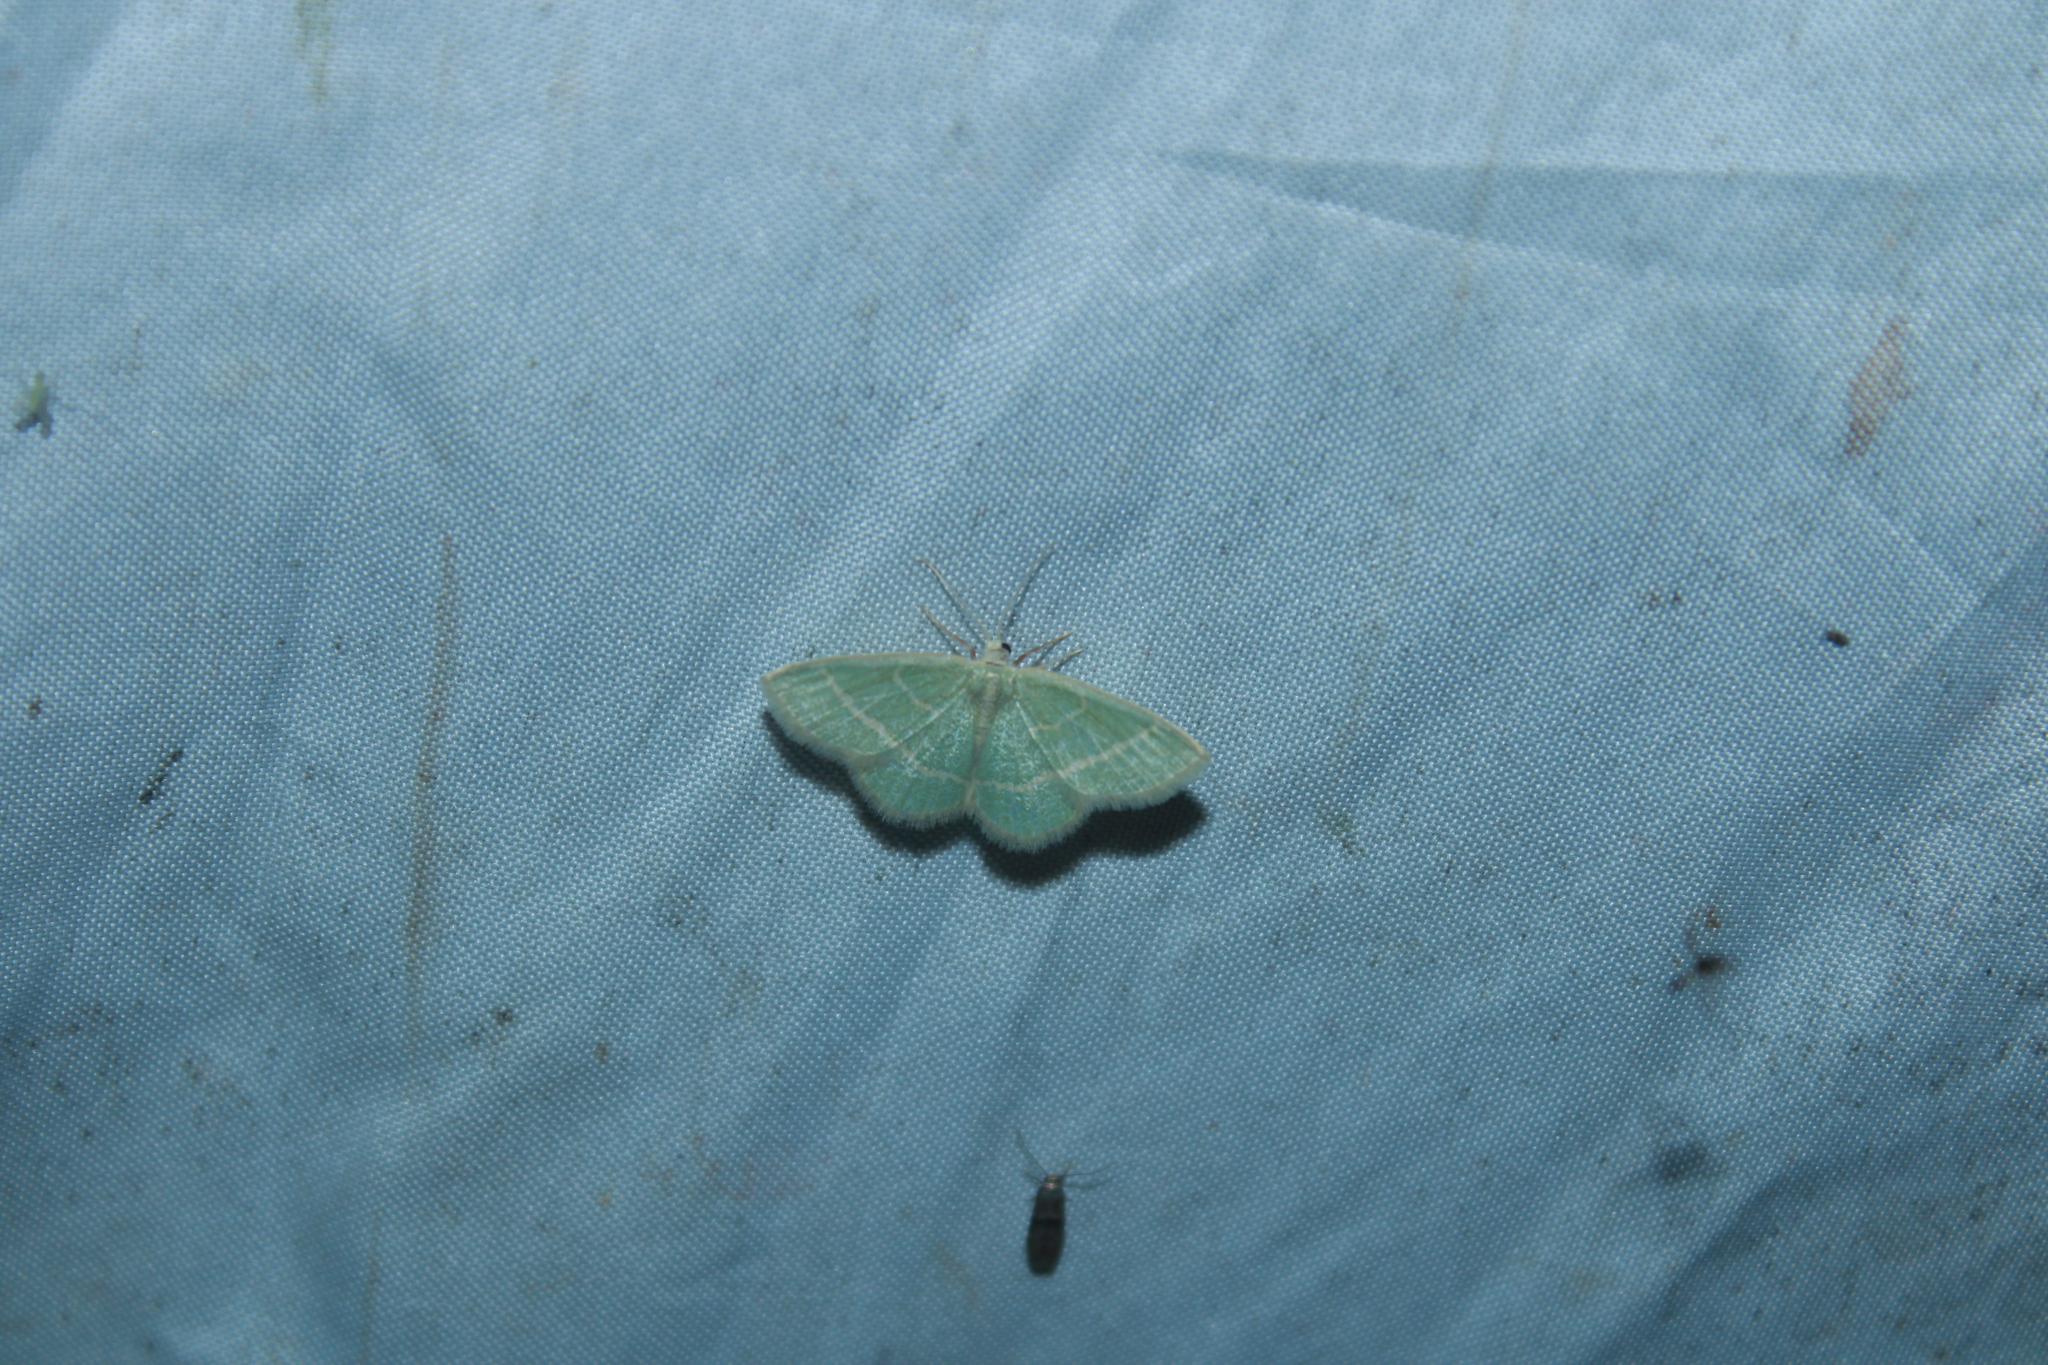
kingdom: Animalia
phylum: Arthropoda
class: Insecta
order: Lepidoptera
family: Geometridae
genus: Chlorochlamys
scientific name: Chlorochlamys chloroleucaria
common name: Blackberry looper
